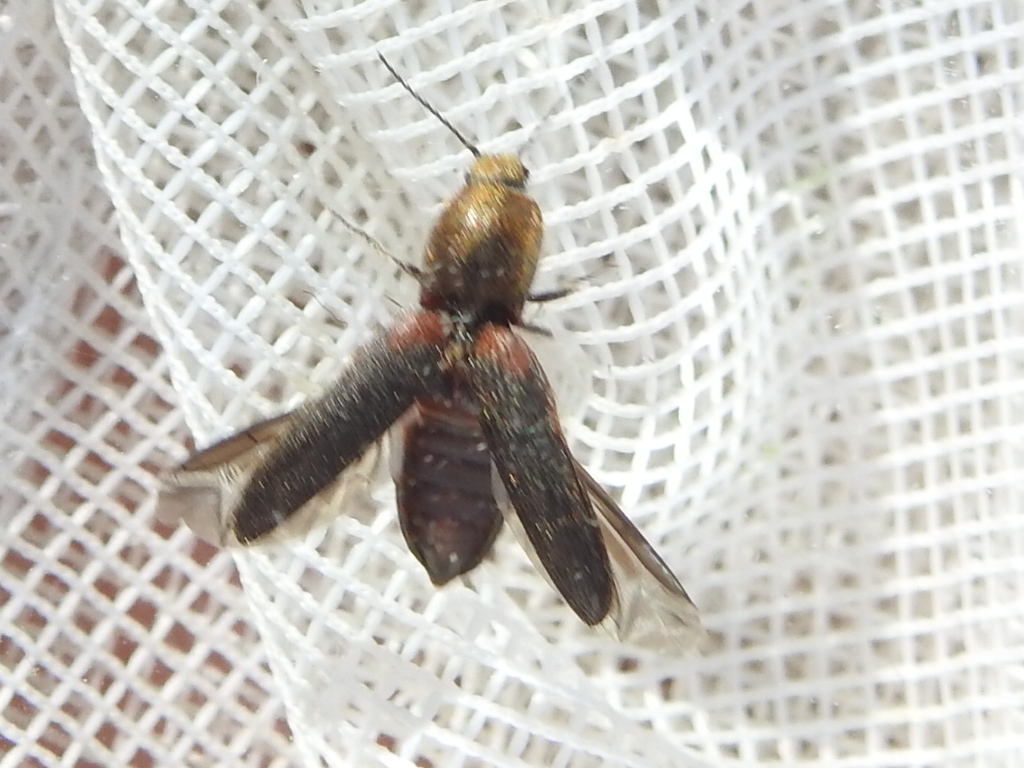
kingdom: Animalia
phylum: Arthropoda
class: Insecta
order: Coleoptera
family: Elateridae
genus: Limonius
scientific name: Limonius auripilis
